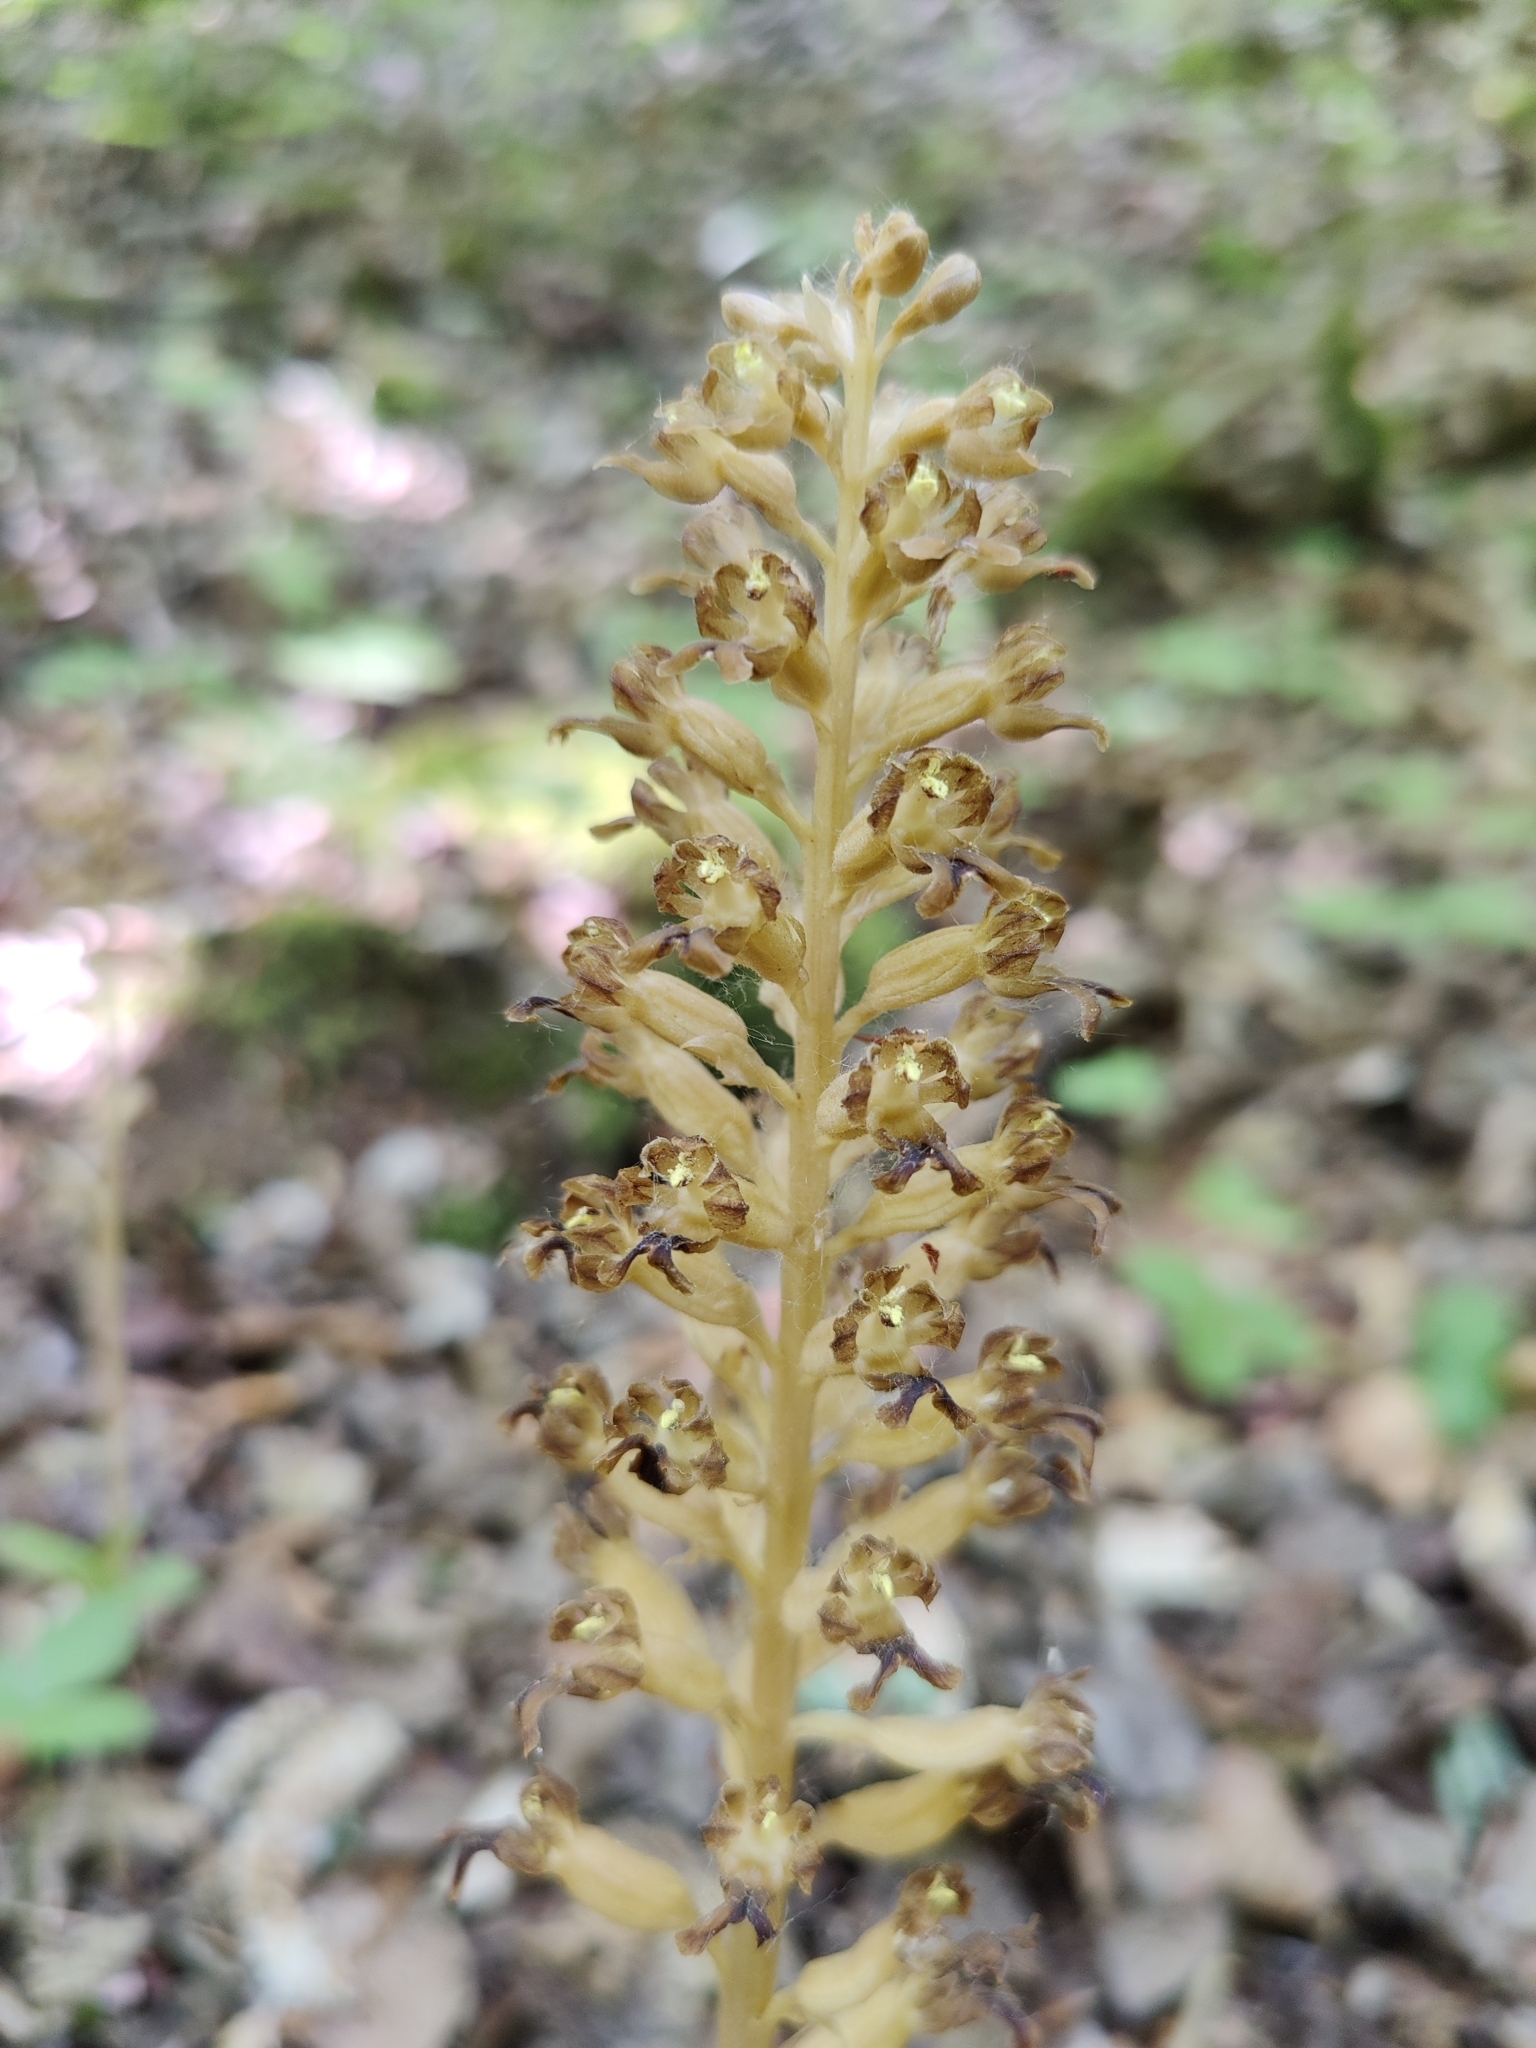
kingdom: Plantae
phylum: Tracheophyta
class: Liliopsida
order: Asparagales
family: Orchidaceae
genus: Neottia
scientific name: Neottia nidus-avis
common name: Bird's-nest orchid
